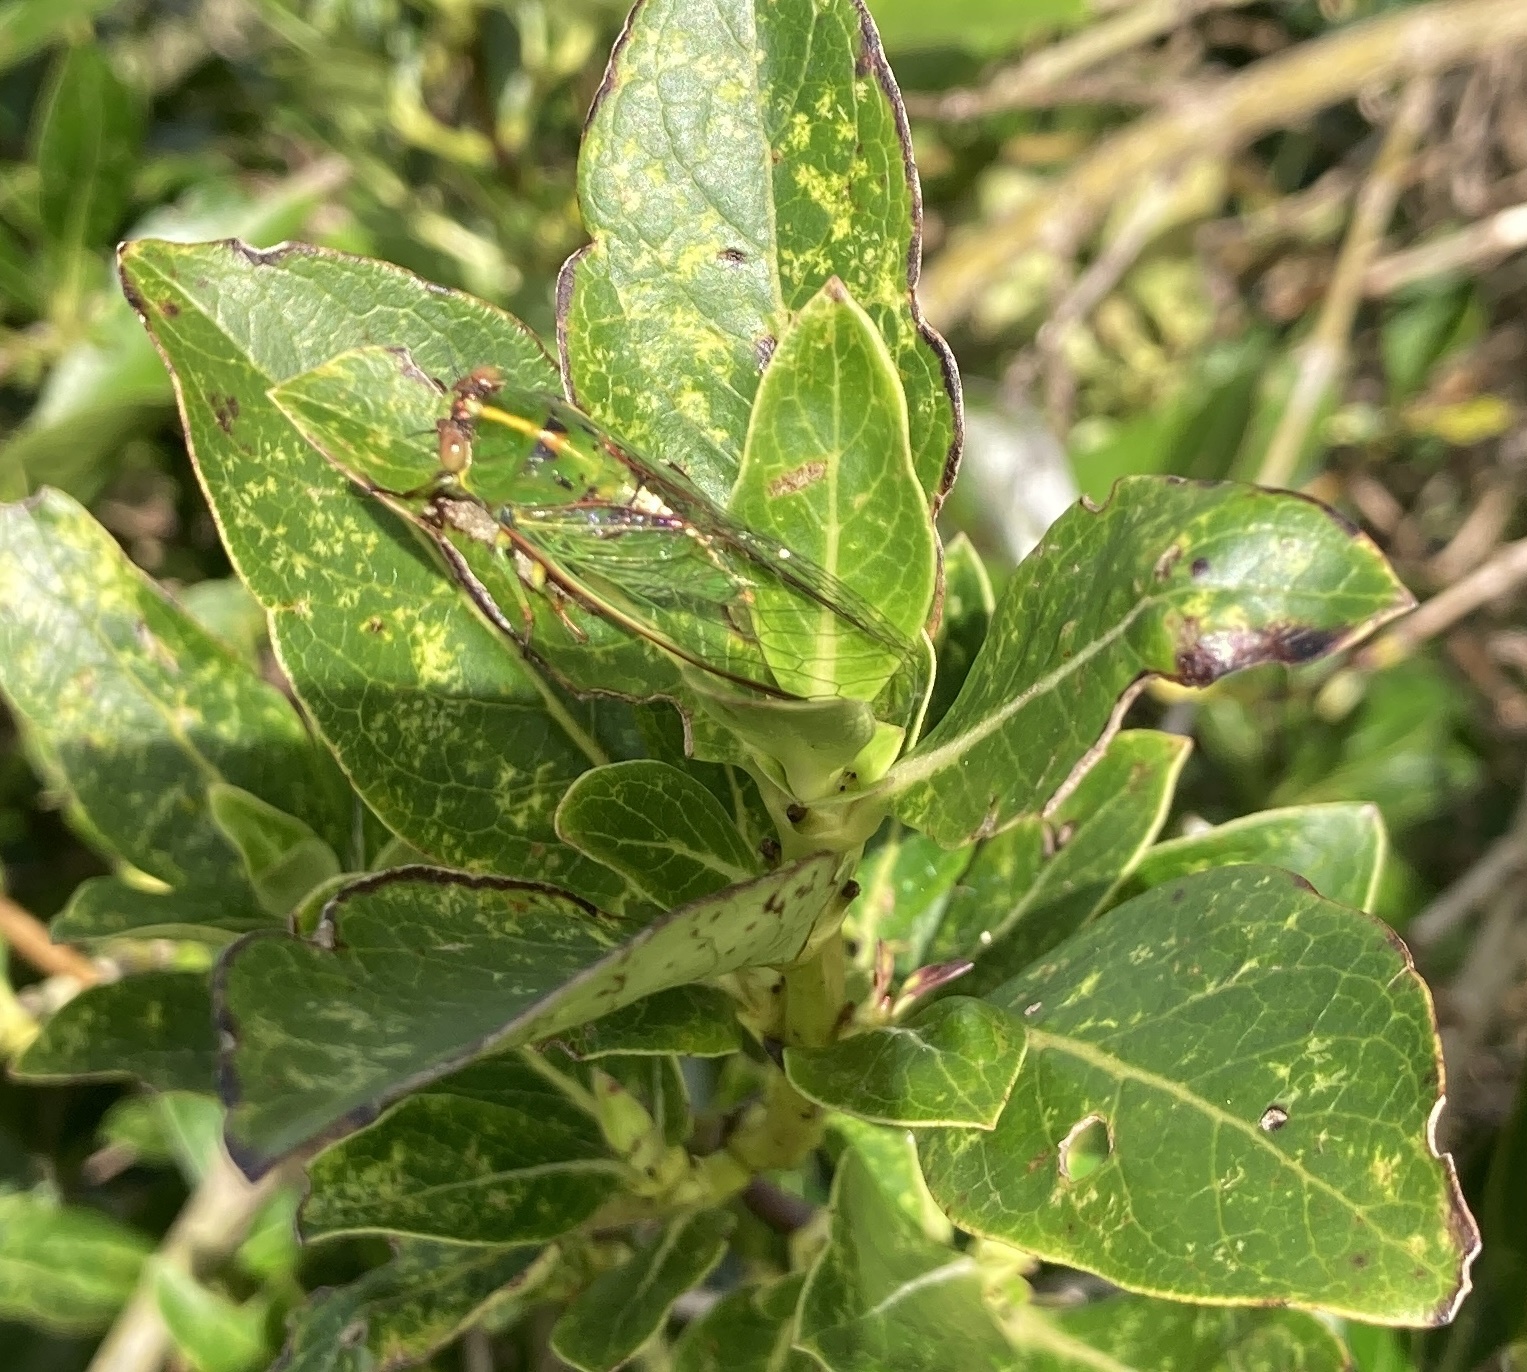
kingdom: Animalia
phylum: Arthropoda
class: Insecta
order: Hemiptera
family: Cicadidae
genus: Kikihia
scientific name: Kikihia cutora
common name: Northern snoring cicada
